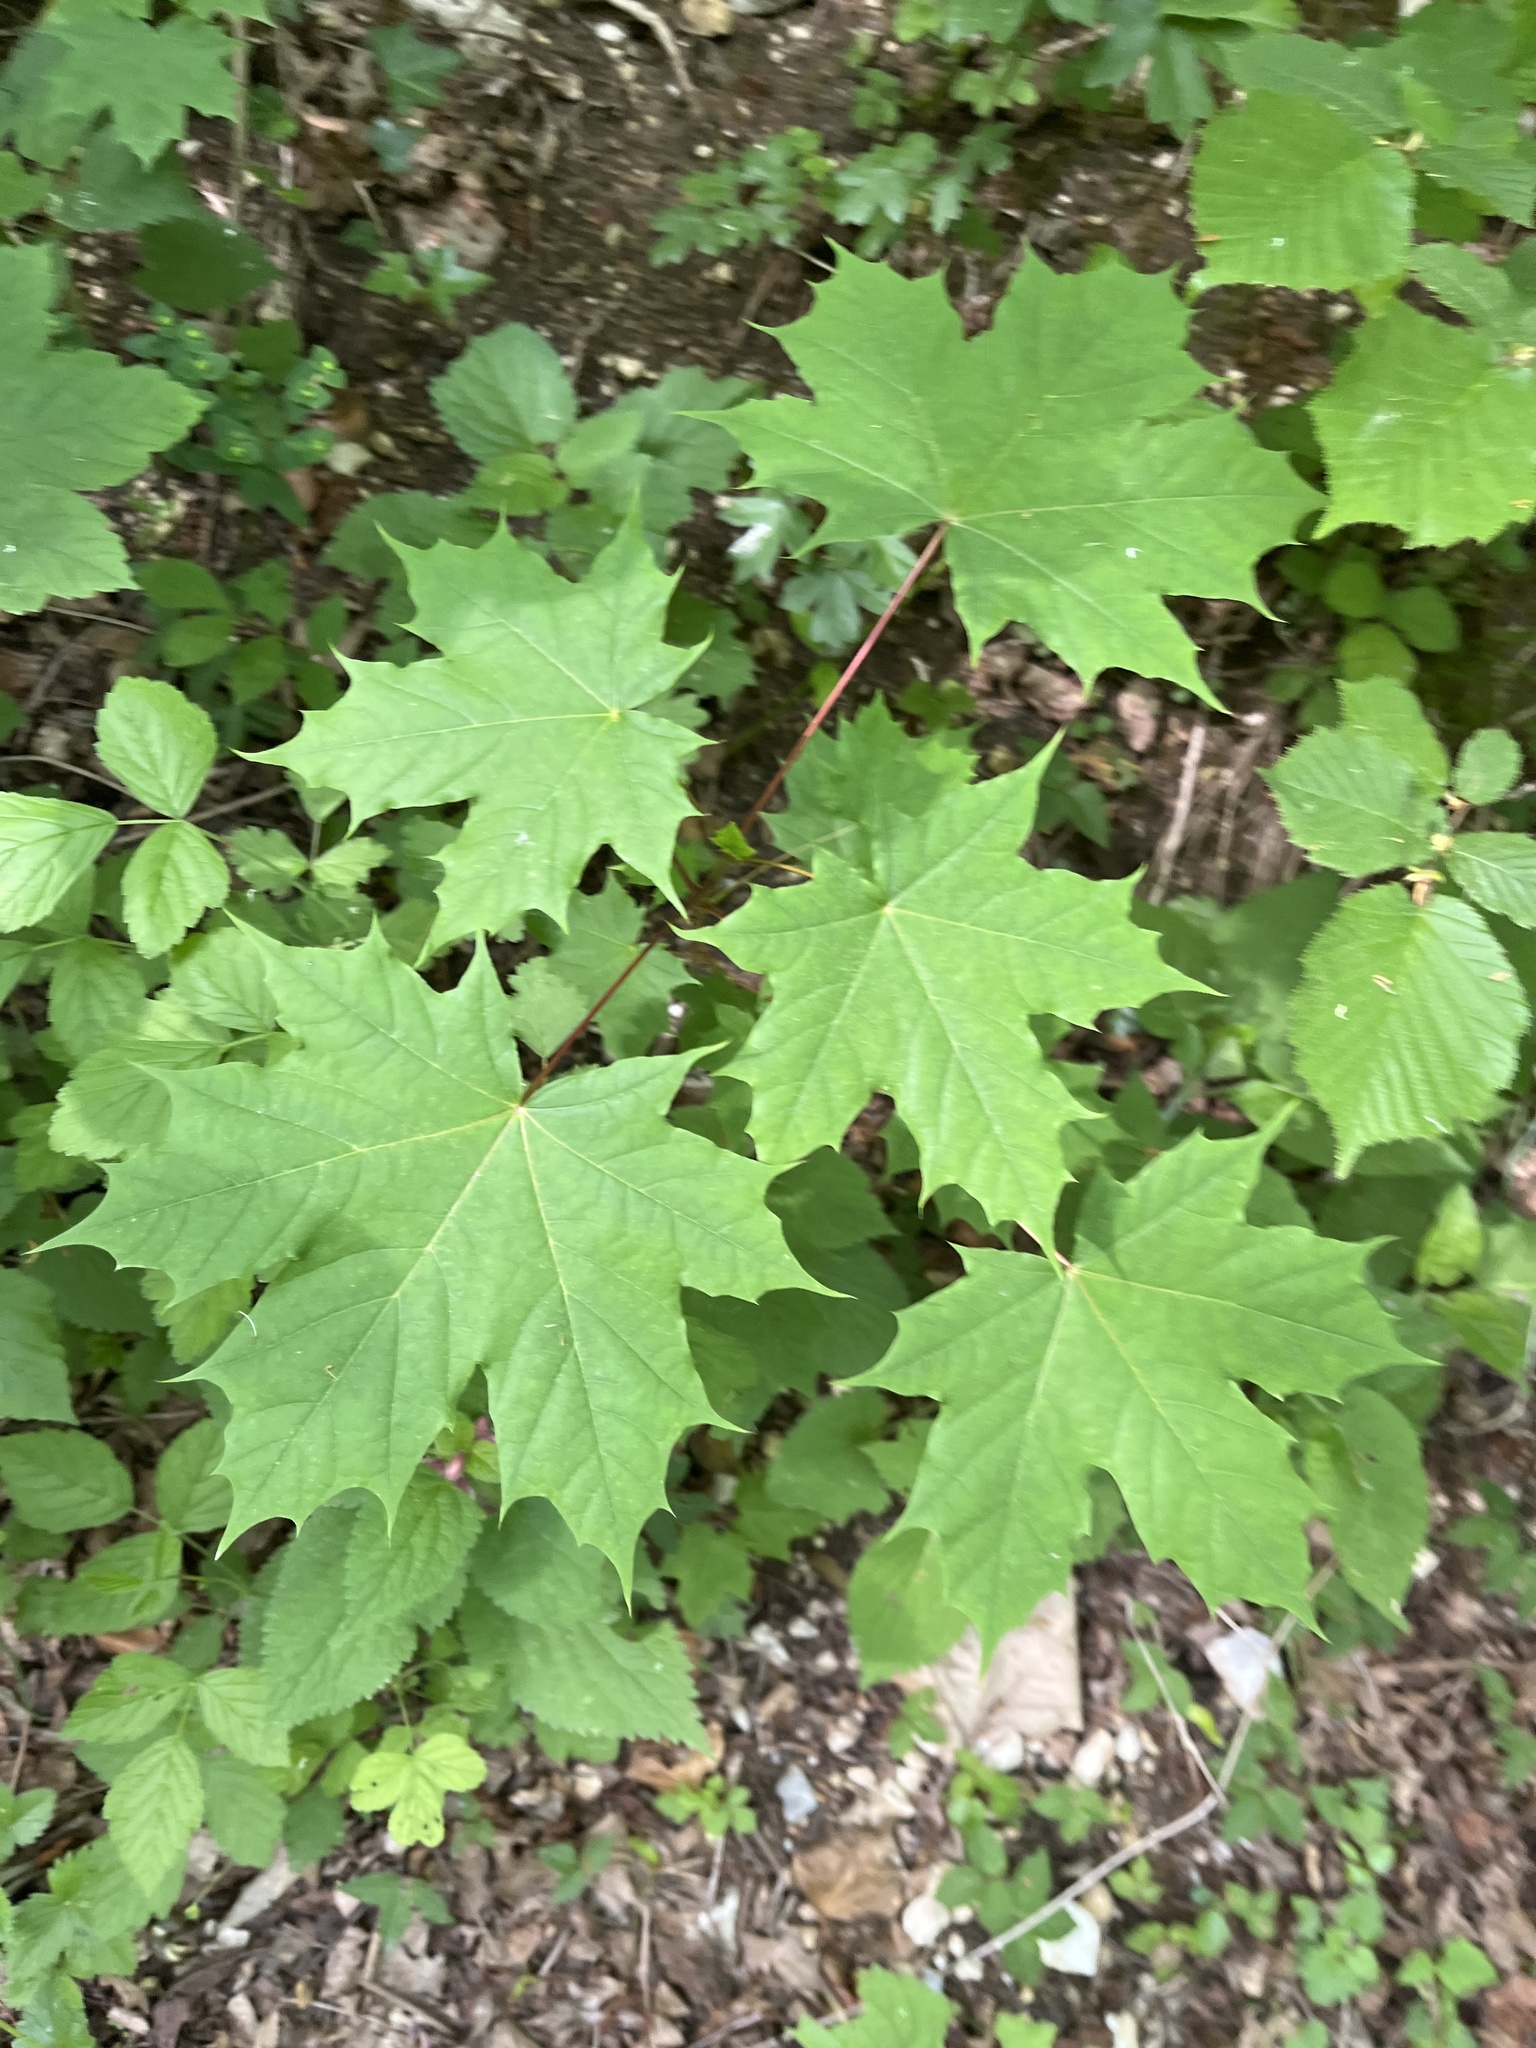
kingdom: Plantae
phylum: Tracheophyta
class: Magnoliopsida
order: Sapindales
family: Sapindaceae
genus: Acer
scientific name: Acer platanoides
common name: Norway maple
